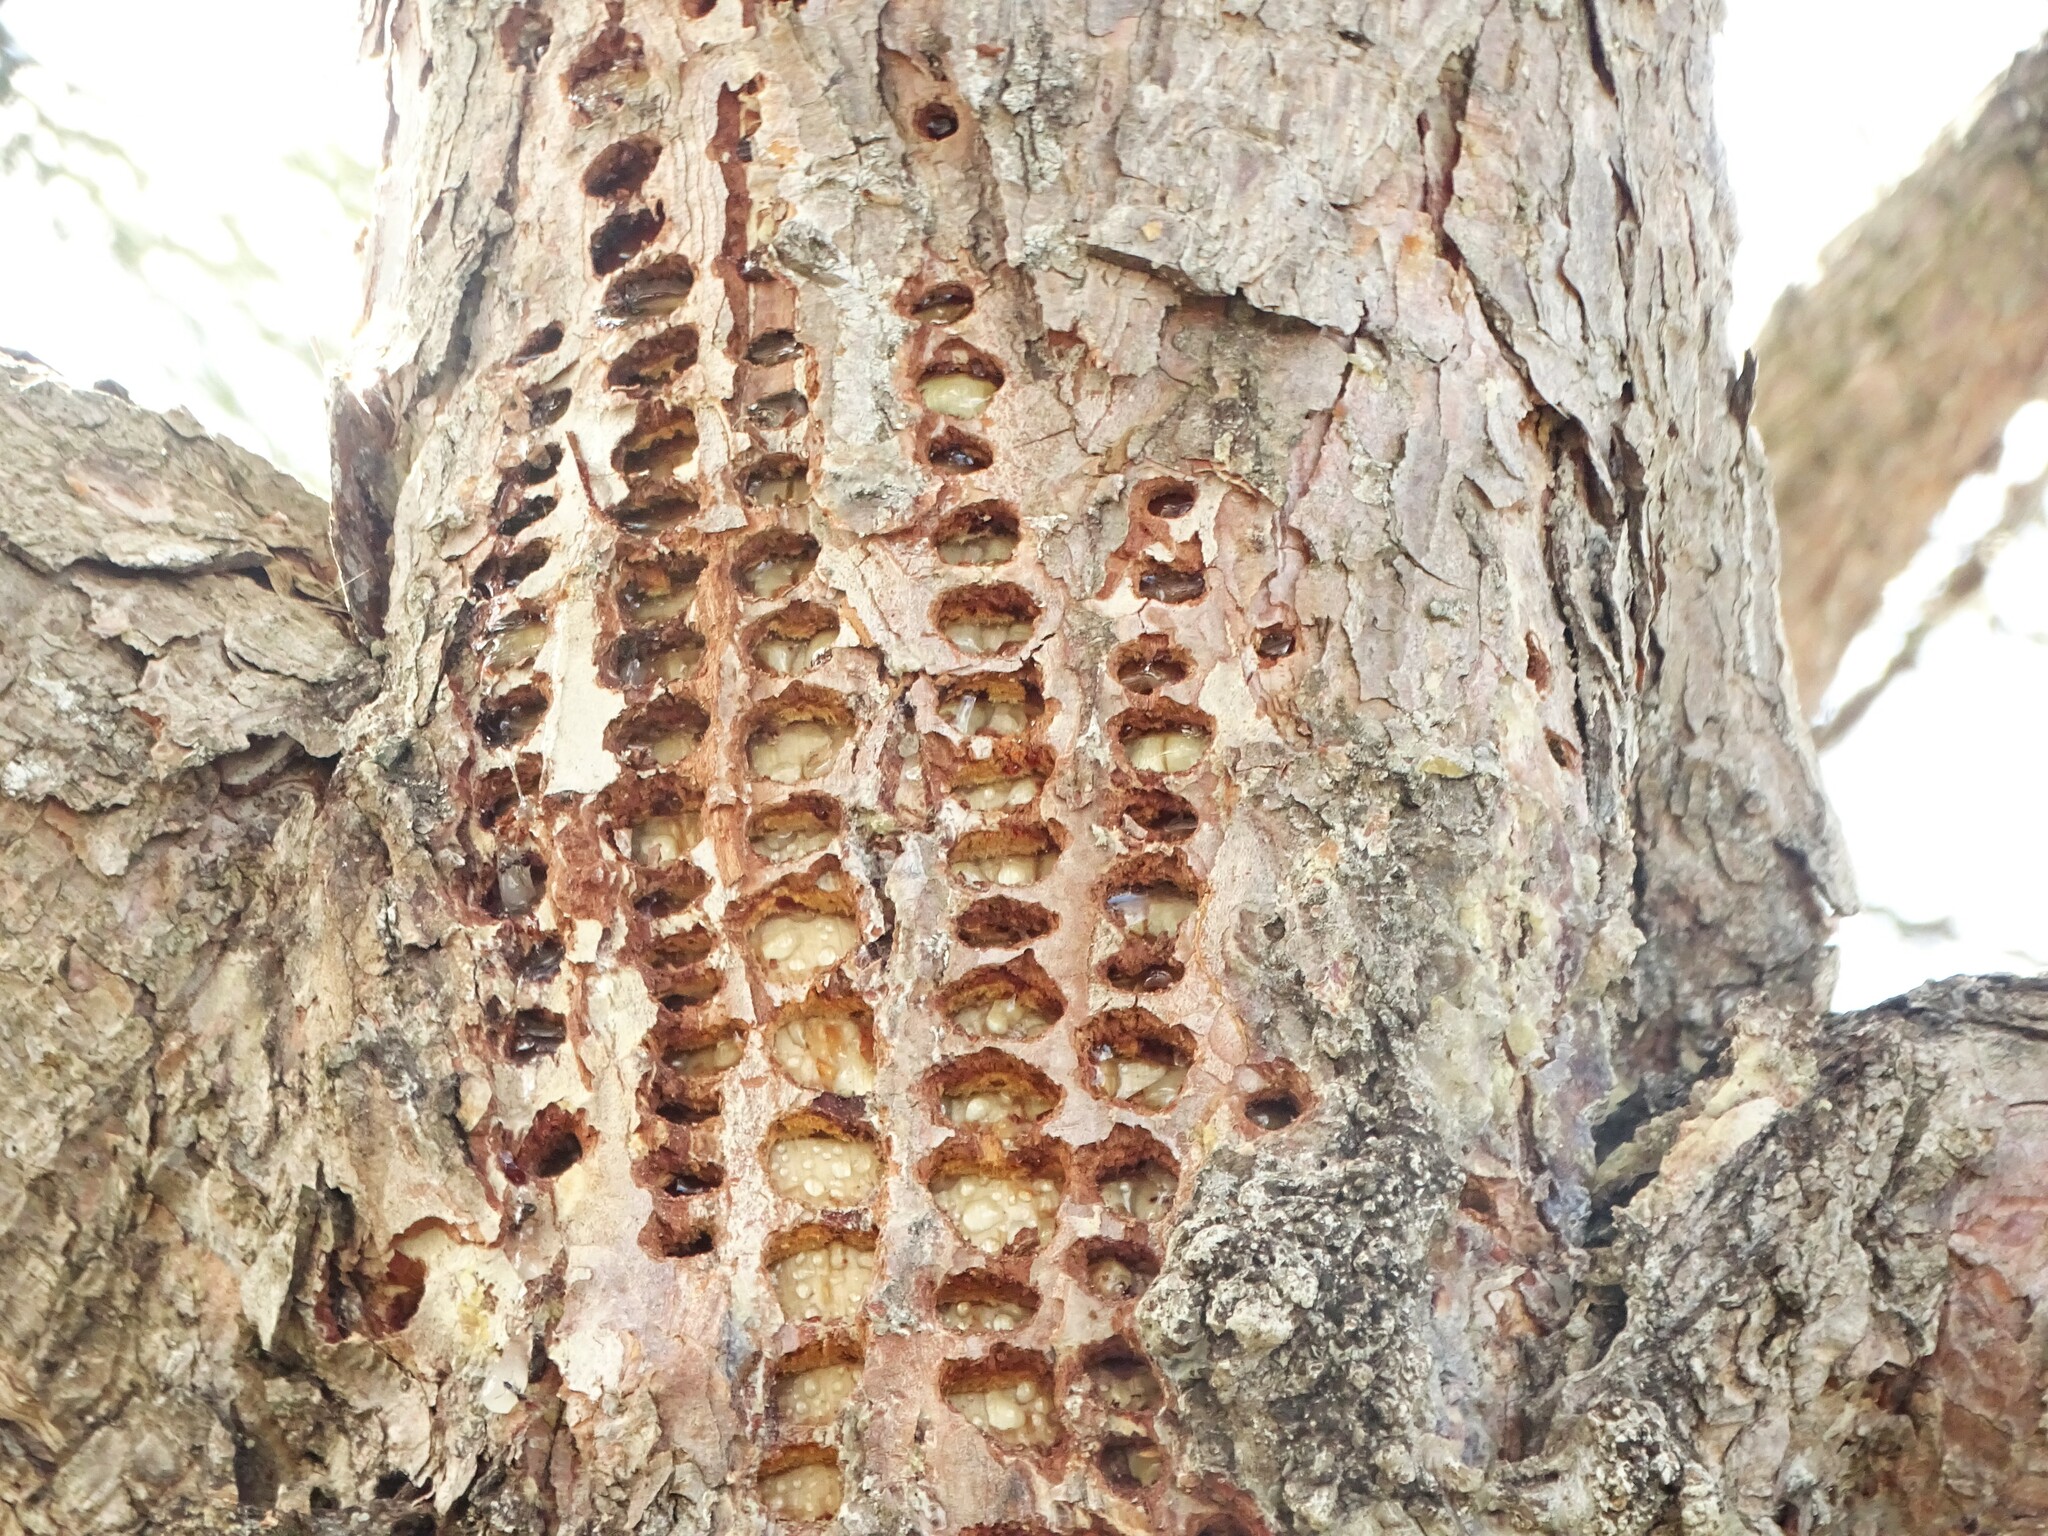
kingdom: Animalia
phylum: Chordata
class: Aves
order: Piciformes
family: Picidae
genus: Sphyrapicus
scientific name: Sphyrapicus varius
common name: Yellow-bellied sapsucker
